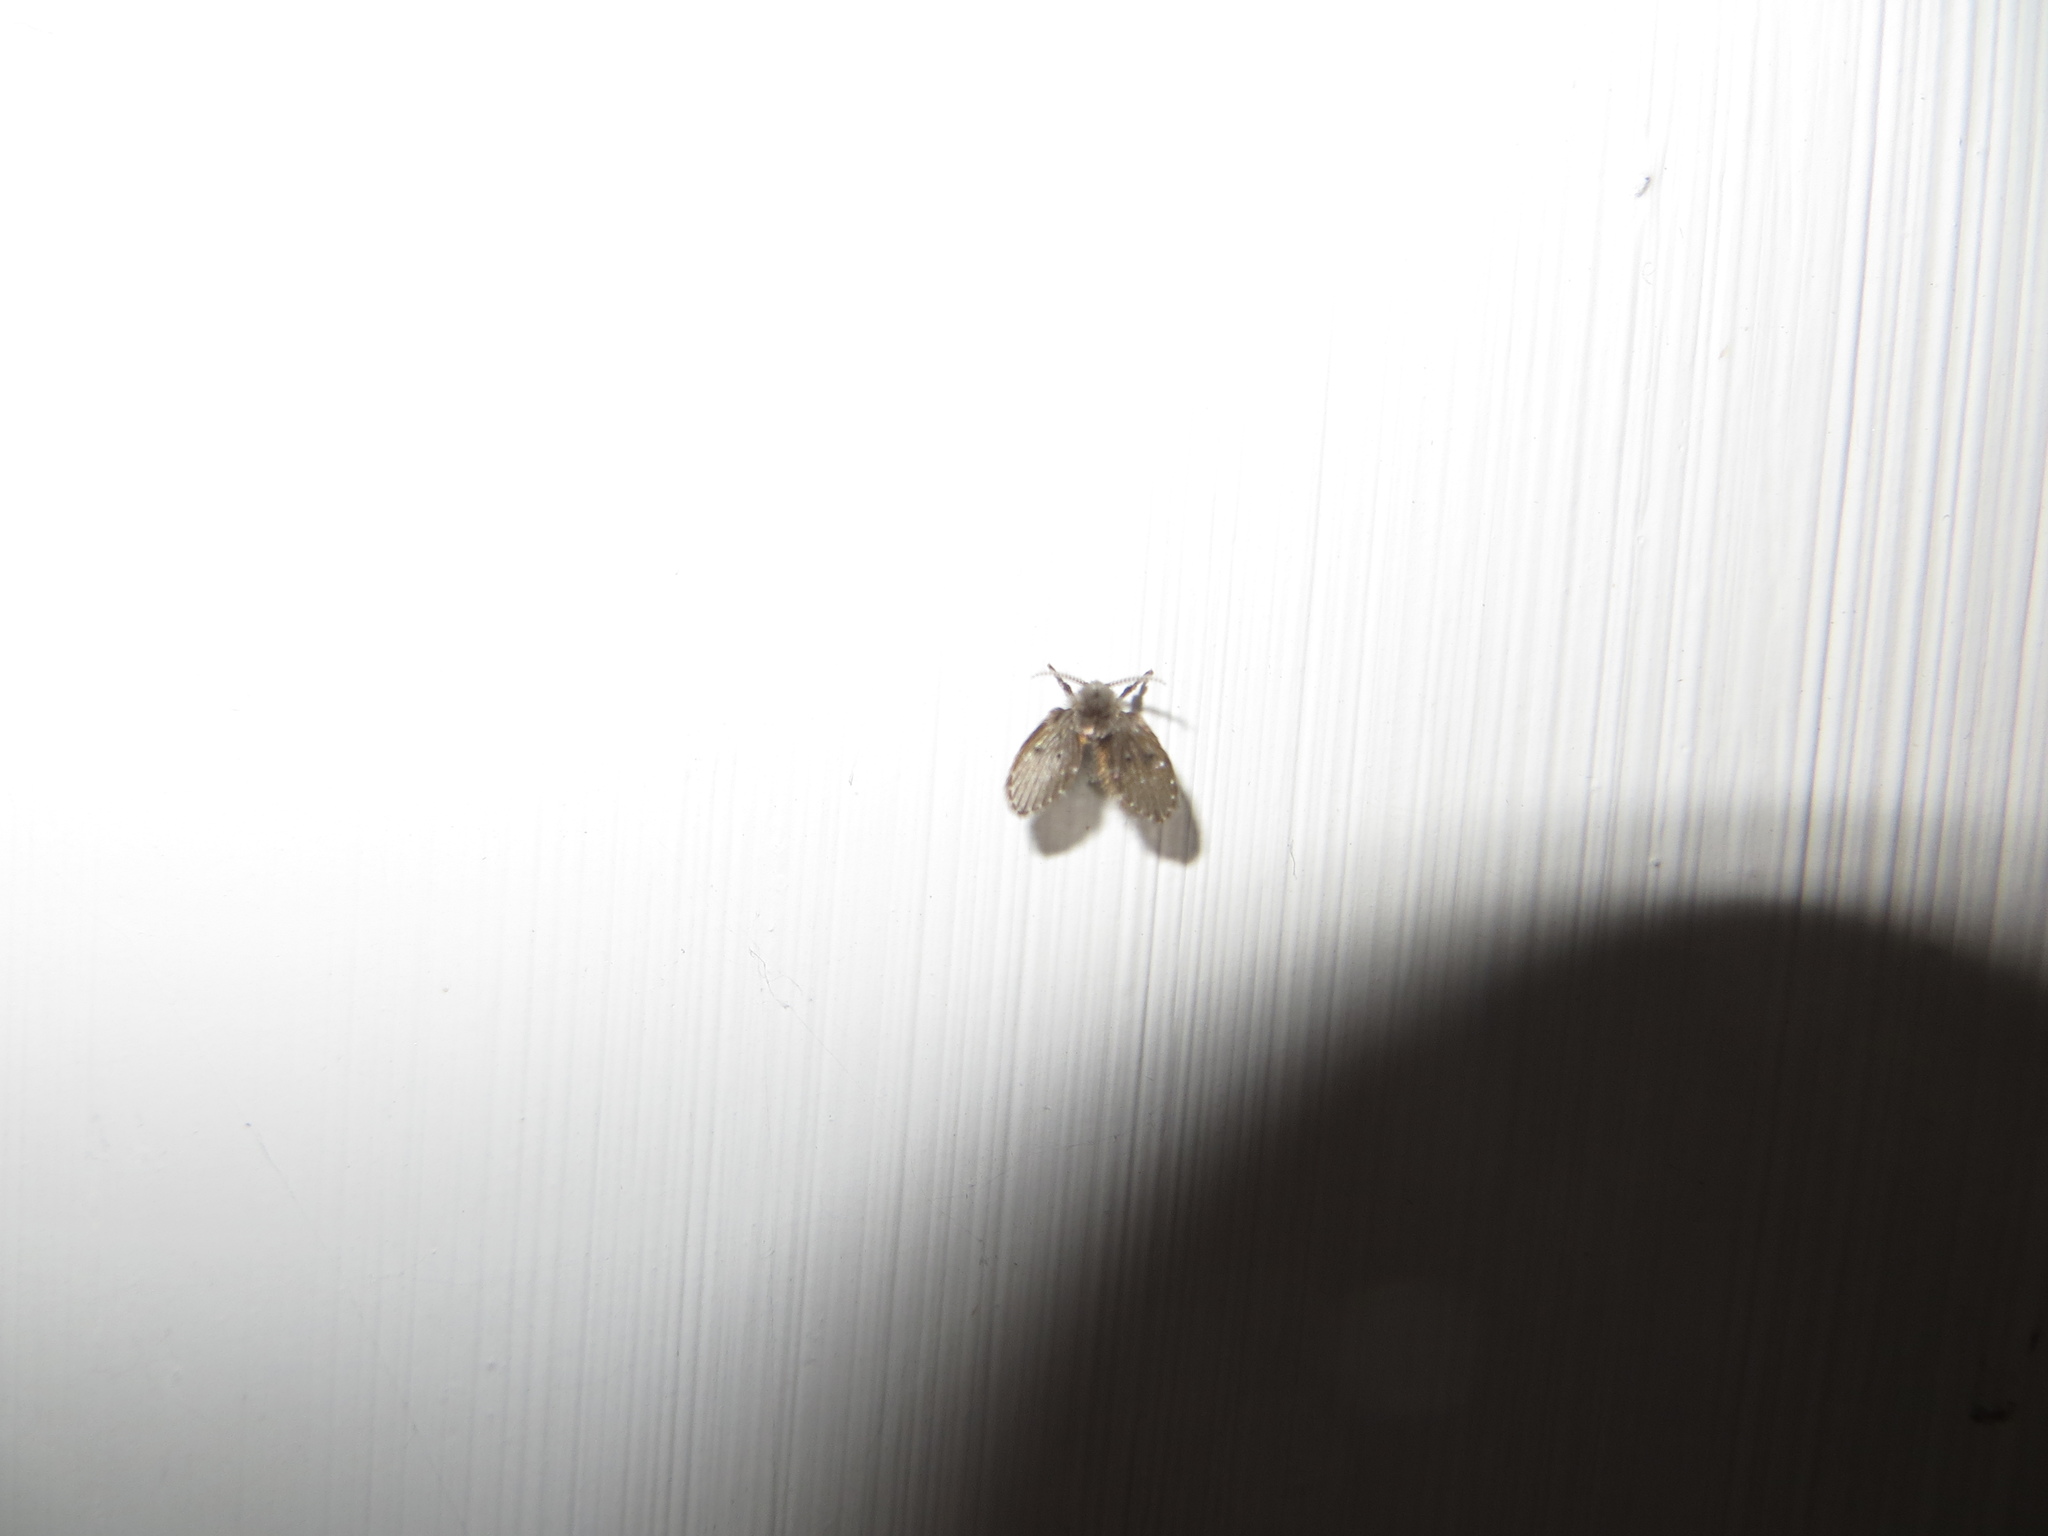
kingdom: Animalia
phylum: Arthropoda
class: Insecta
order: Diptera
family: Psychodidae
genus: Clogmia
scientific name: Clogmia albipunctatus
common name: White-spotted moth fly
